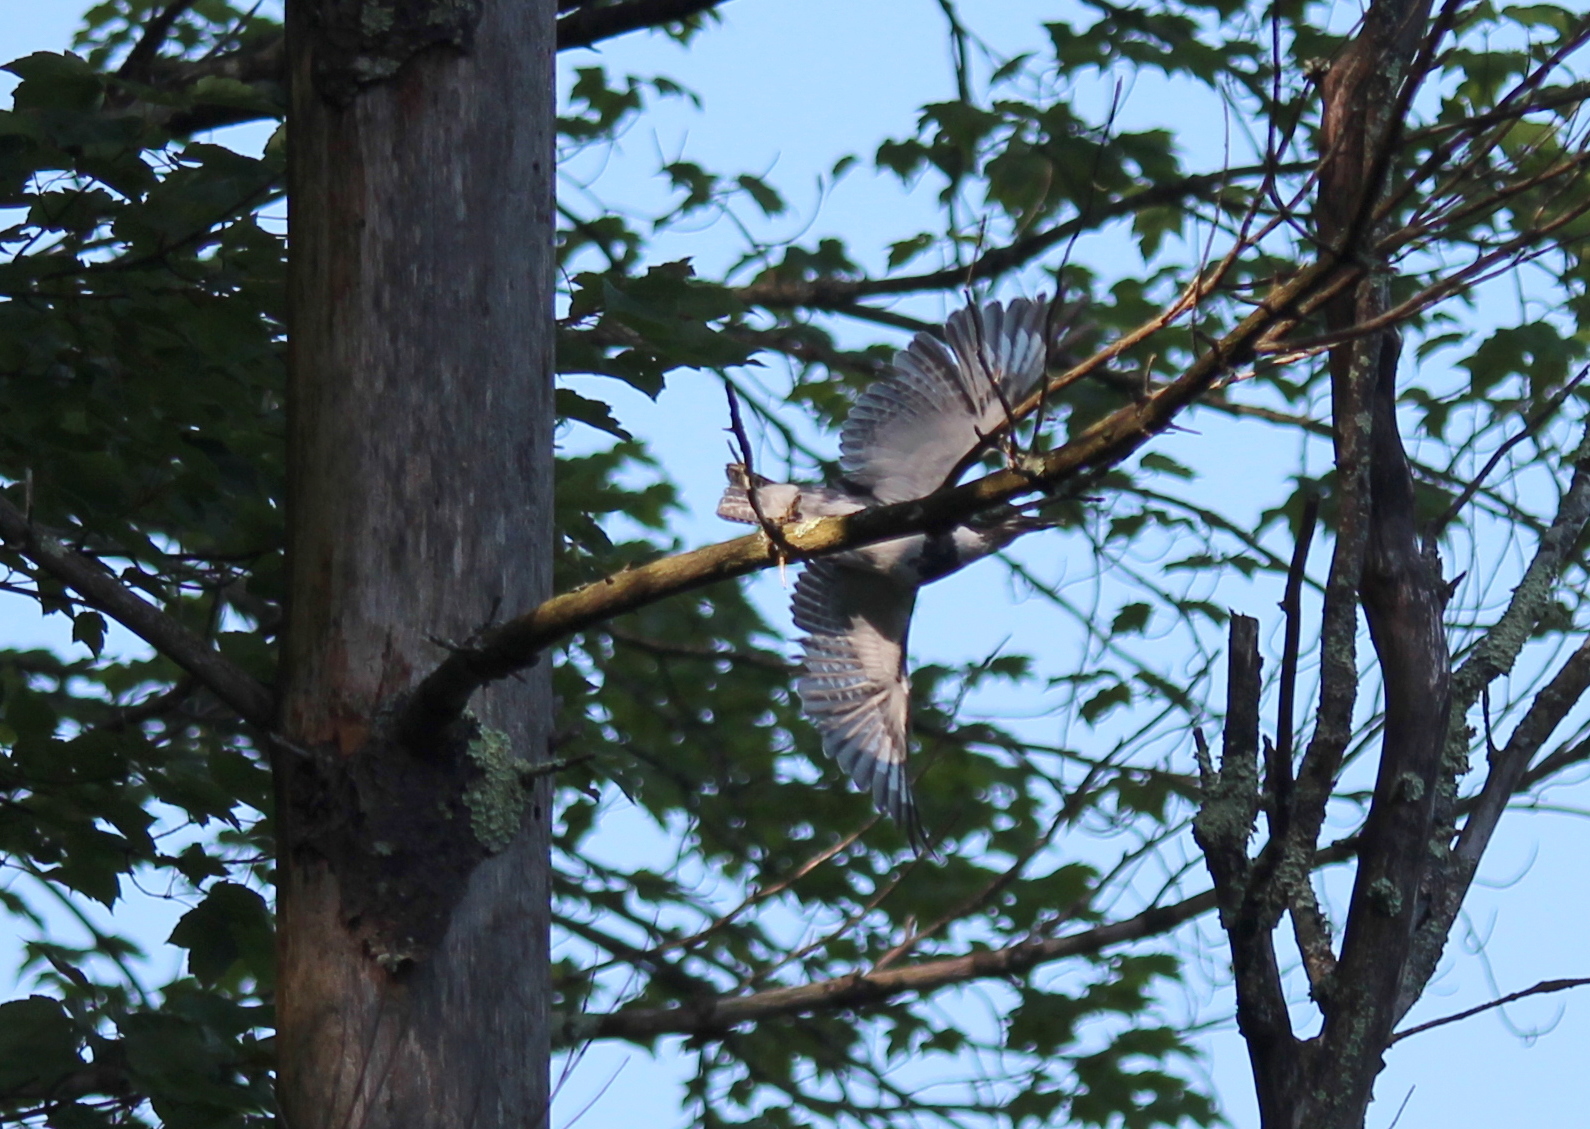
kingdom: Animalia
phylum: Chordata
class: Aves
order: Coraciiformes
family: Alcedinidae
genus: Megaceryle
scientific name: Megaceryle alcyon
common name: Belted kingfisher
